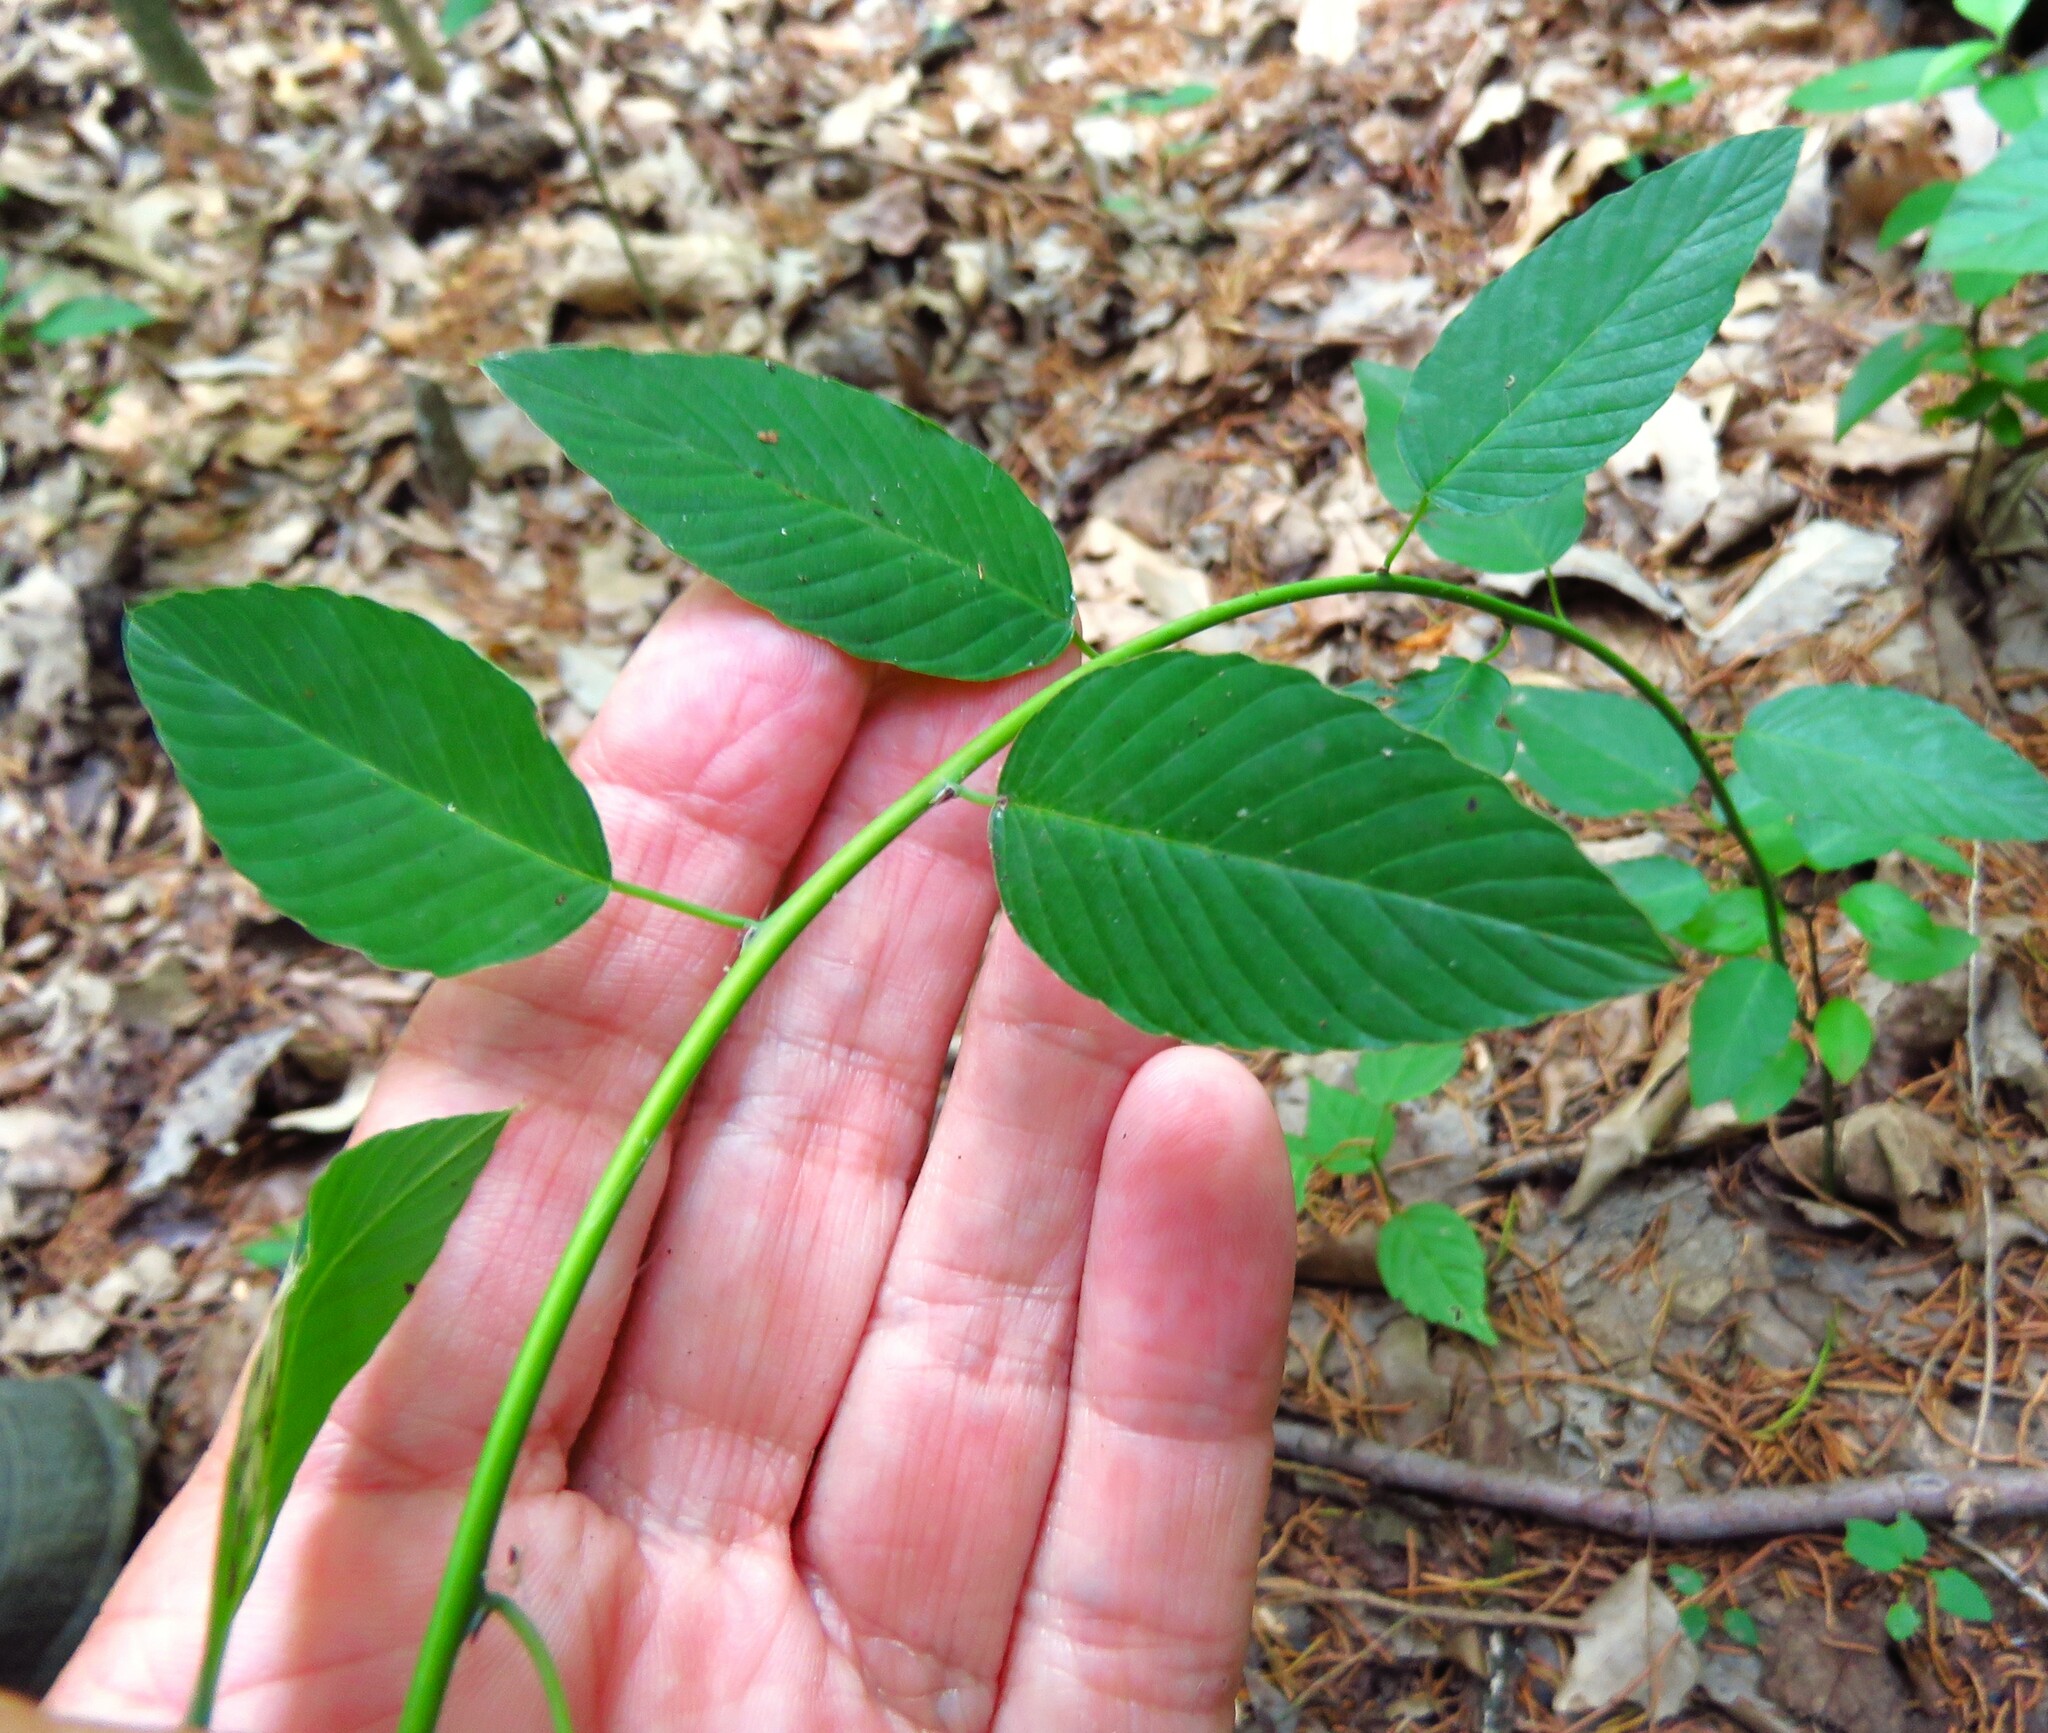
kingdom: Plantae
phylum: Tracheophyta
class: Magnoliopsida
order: Rosales
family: Rhamnaceae
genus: Berchemia
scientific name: Berchemia scandens
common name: Supplejack
